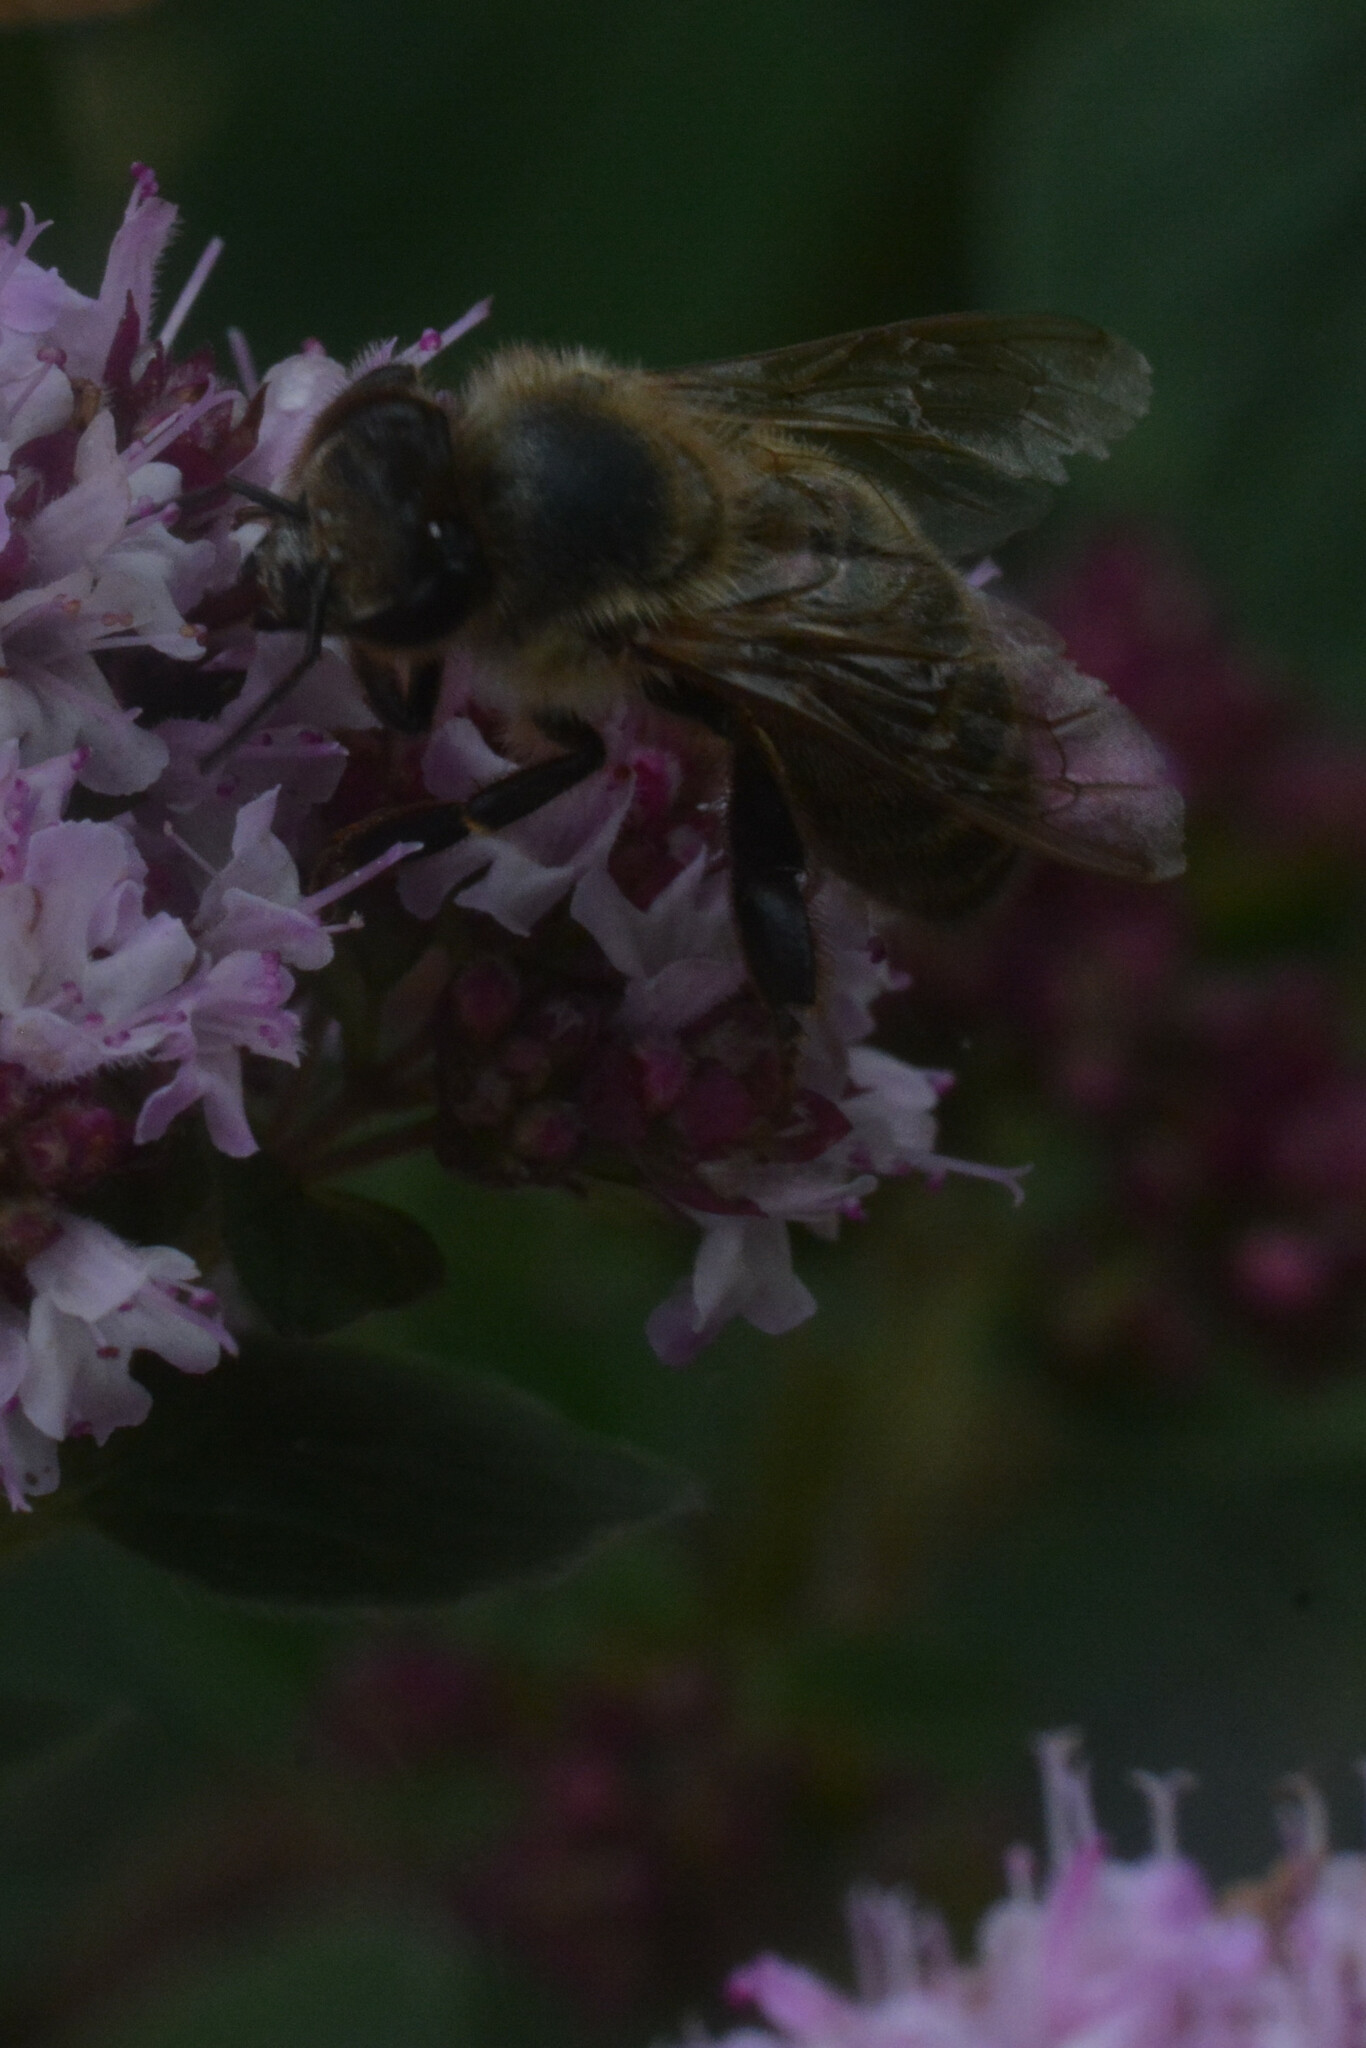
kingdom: Animalia
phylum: Arthropoda
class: Insecta
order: Hymenoptera
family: Apidae
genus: Apis
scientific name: Apis mellifera
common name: Honey bee
